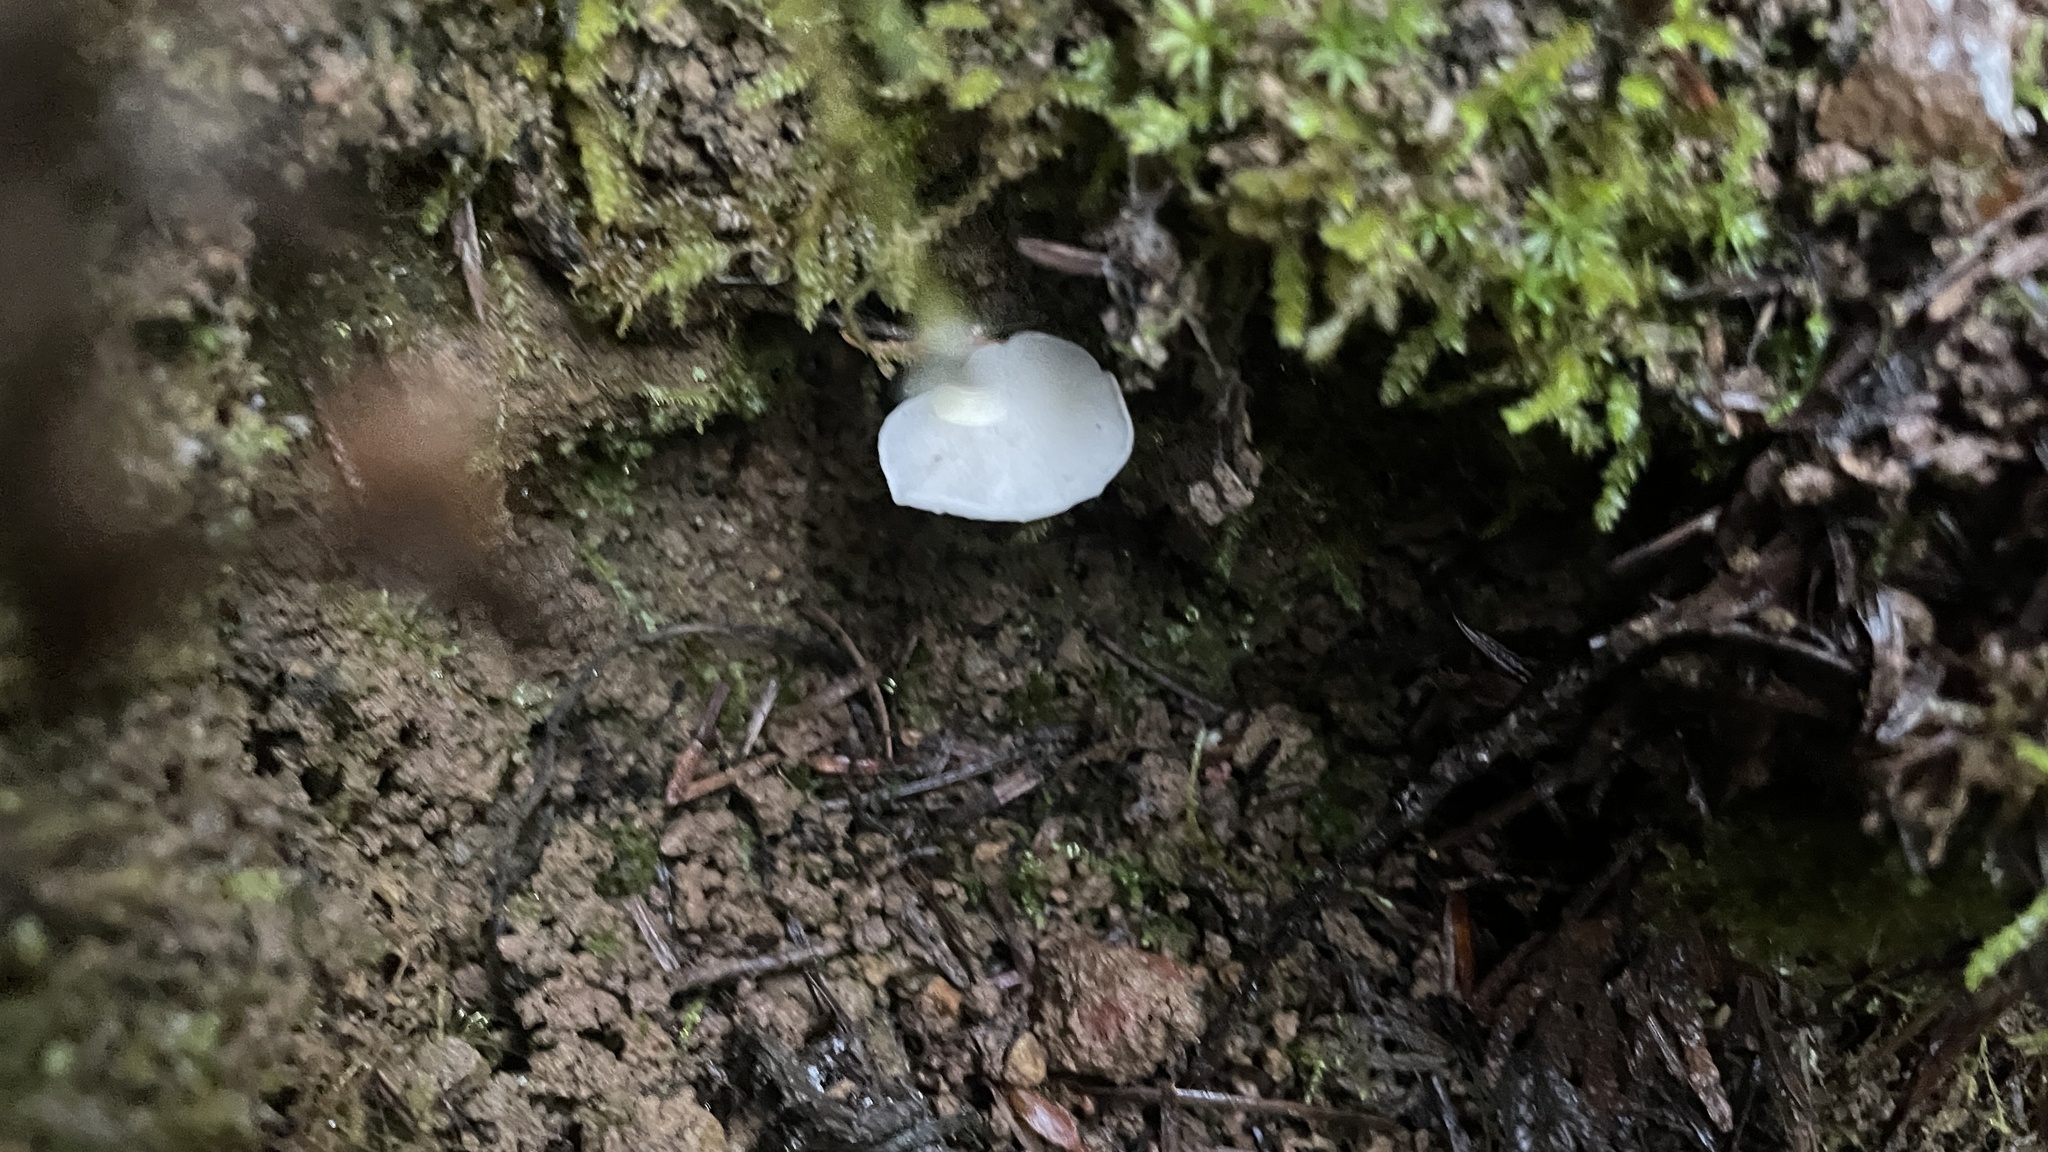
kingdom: Fungi
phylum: Basidiomycota
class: Agaricomycetes
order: Agaricales
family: Omphalotaceae
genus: Marasmiellus
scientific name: Marasmiellus candidus
